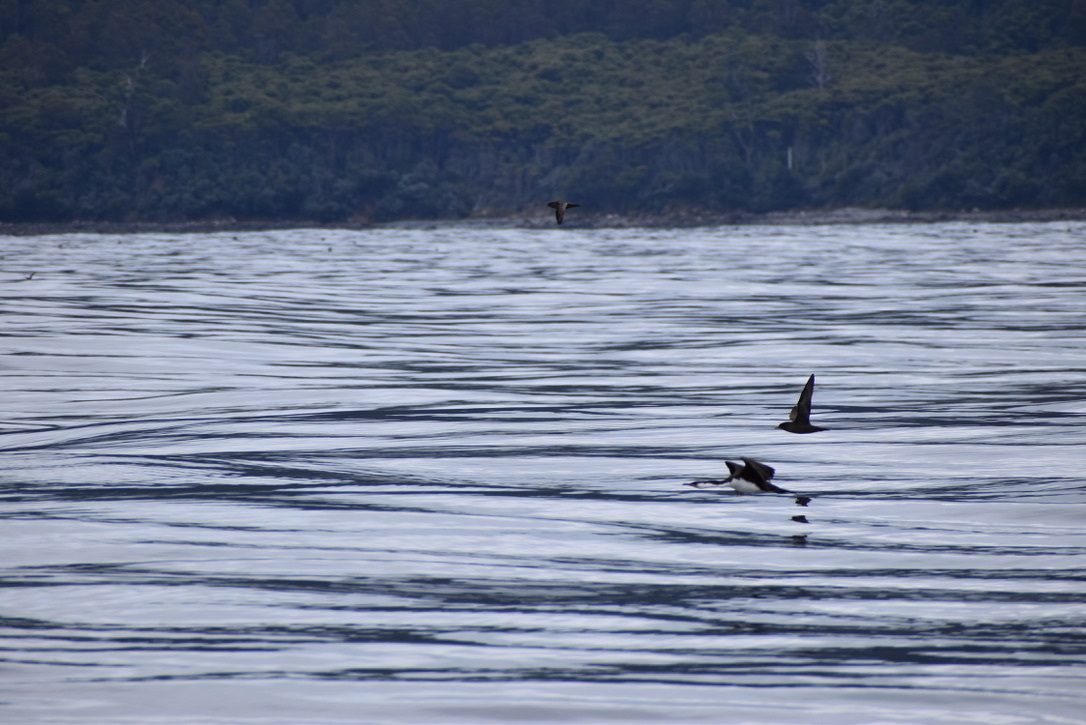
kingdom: Animalia
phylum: Chordata
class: Aves
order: Suliformes
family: Phalacrocoracidae
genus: Phalacrocorax
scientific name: Phalacrocorax fuscescens
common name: Black-faced cormorant
